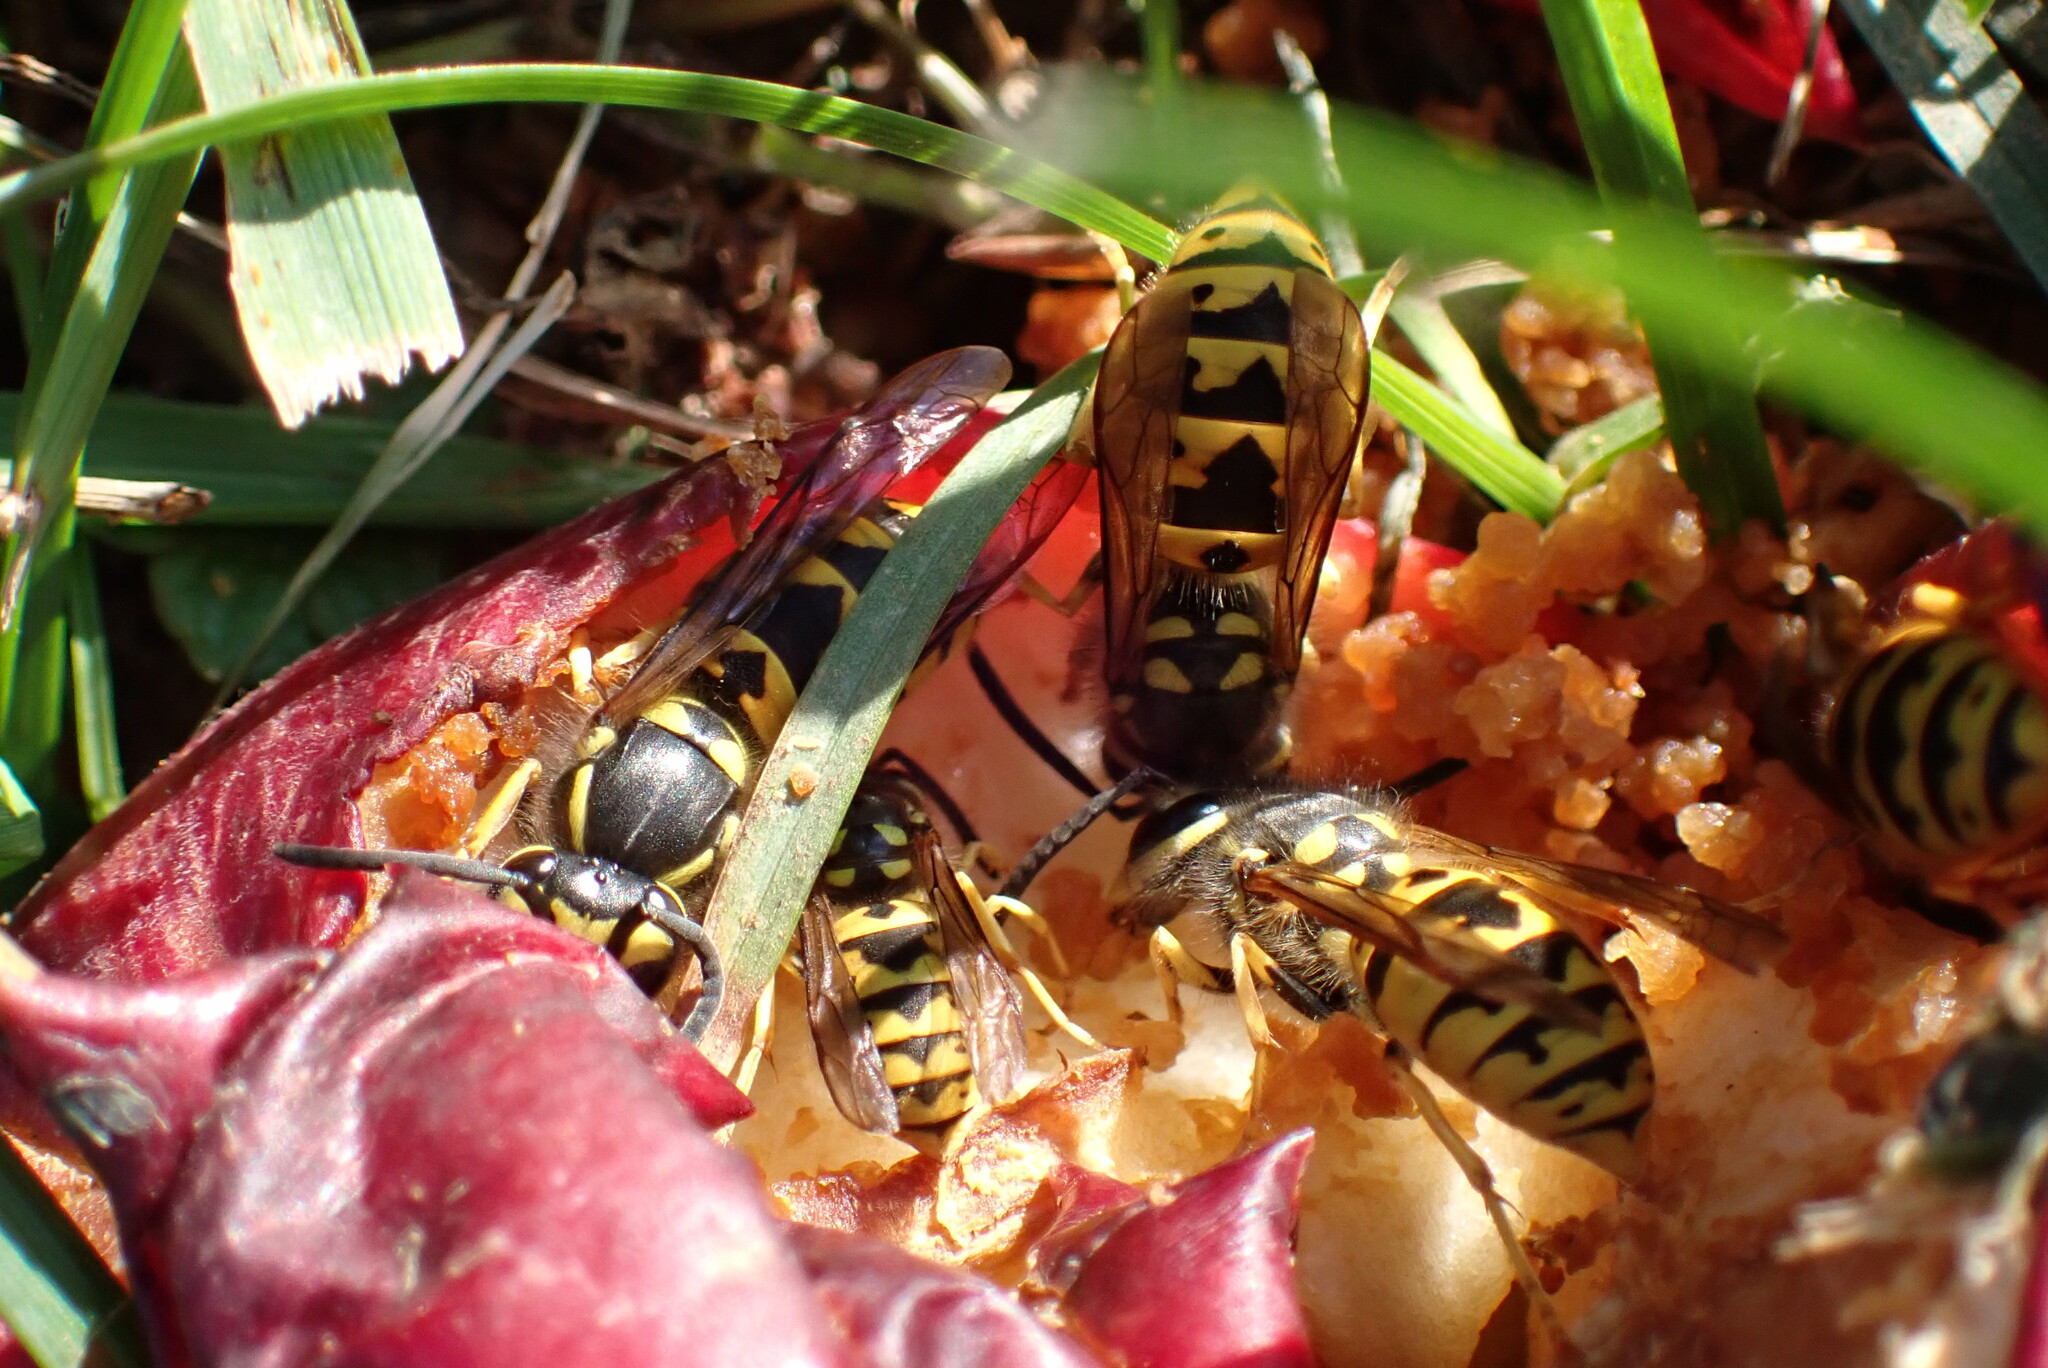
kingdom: Animalia
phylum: Arthropoda
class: Insecta
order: Hymenoptera
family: Vespidae
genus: Vespula
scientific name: Vespula germanica
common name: German wasp
